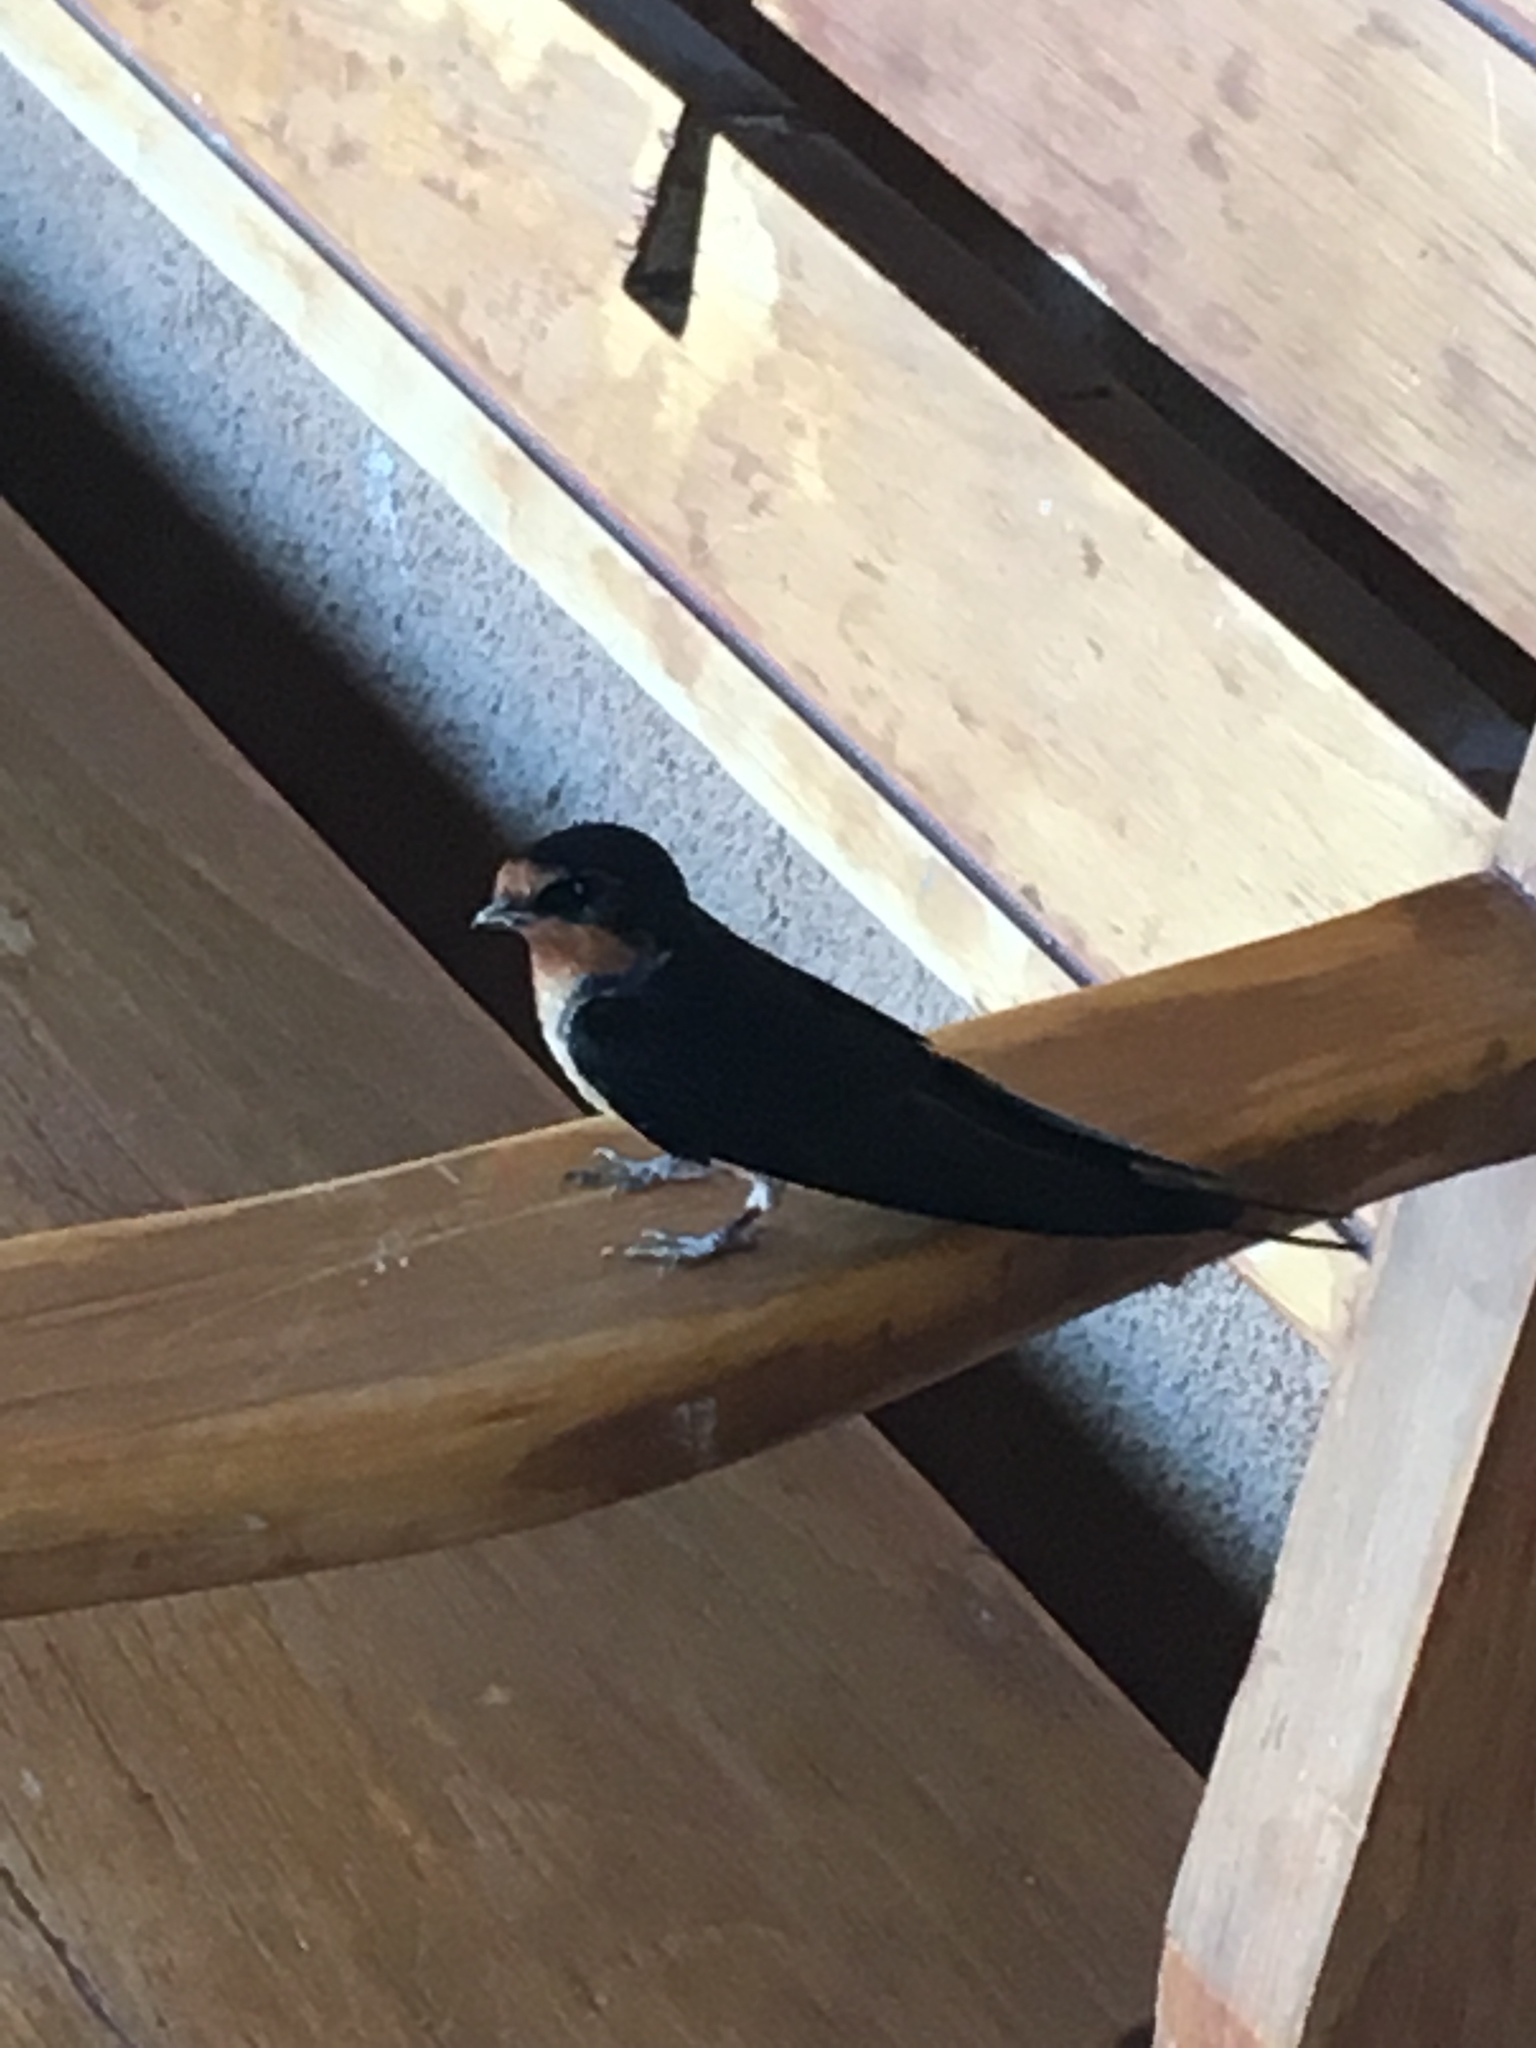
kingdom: Animalia
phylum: Chordata
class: Aves
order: Passeriformes
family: Hirundinidae
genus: Hirundo
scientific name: Hirundo rustica
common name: Barn swallow
